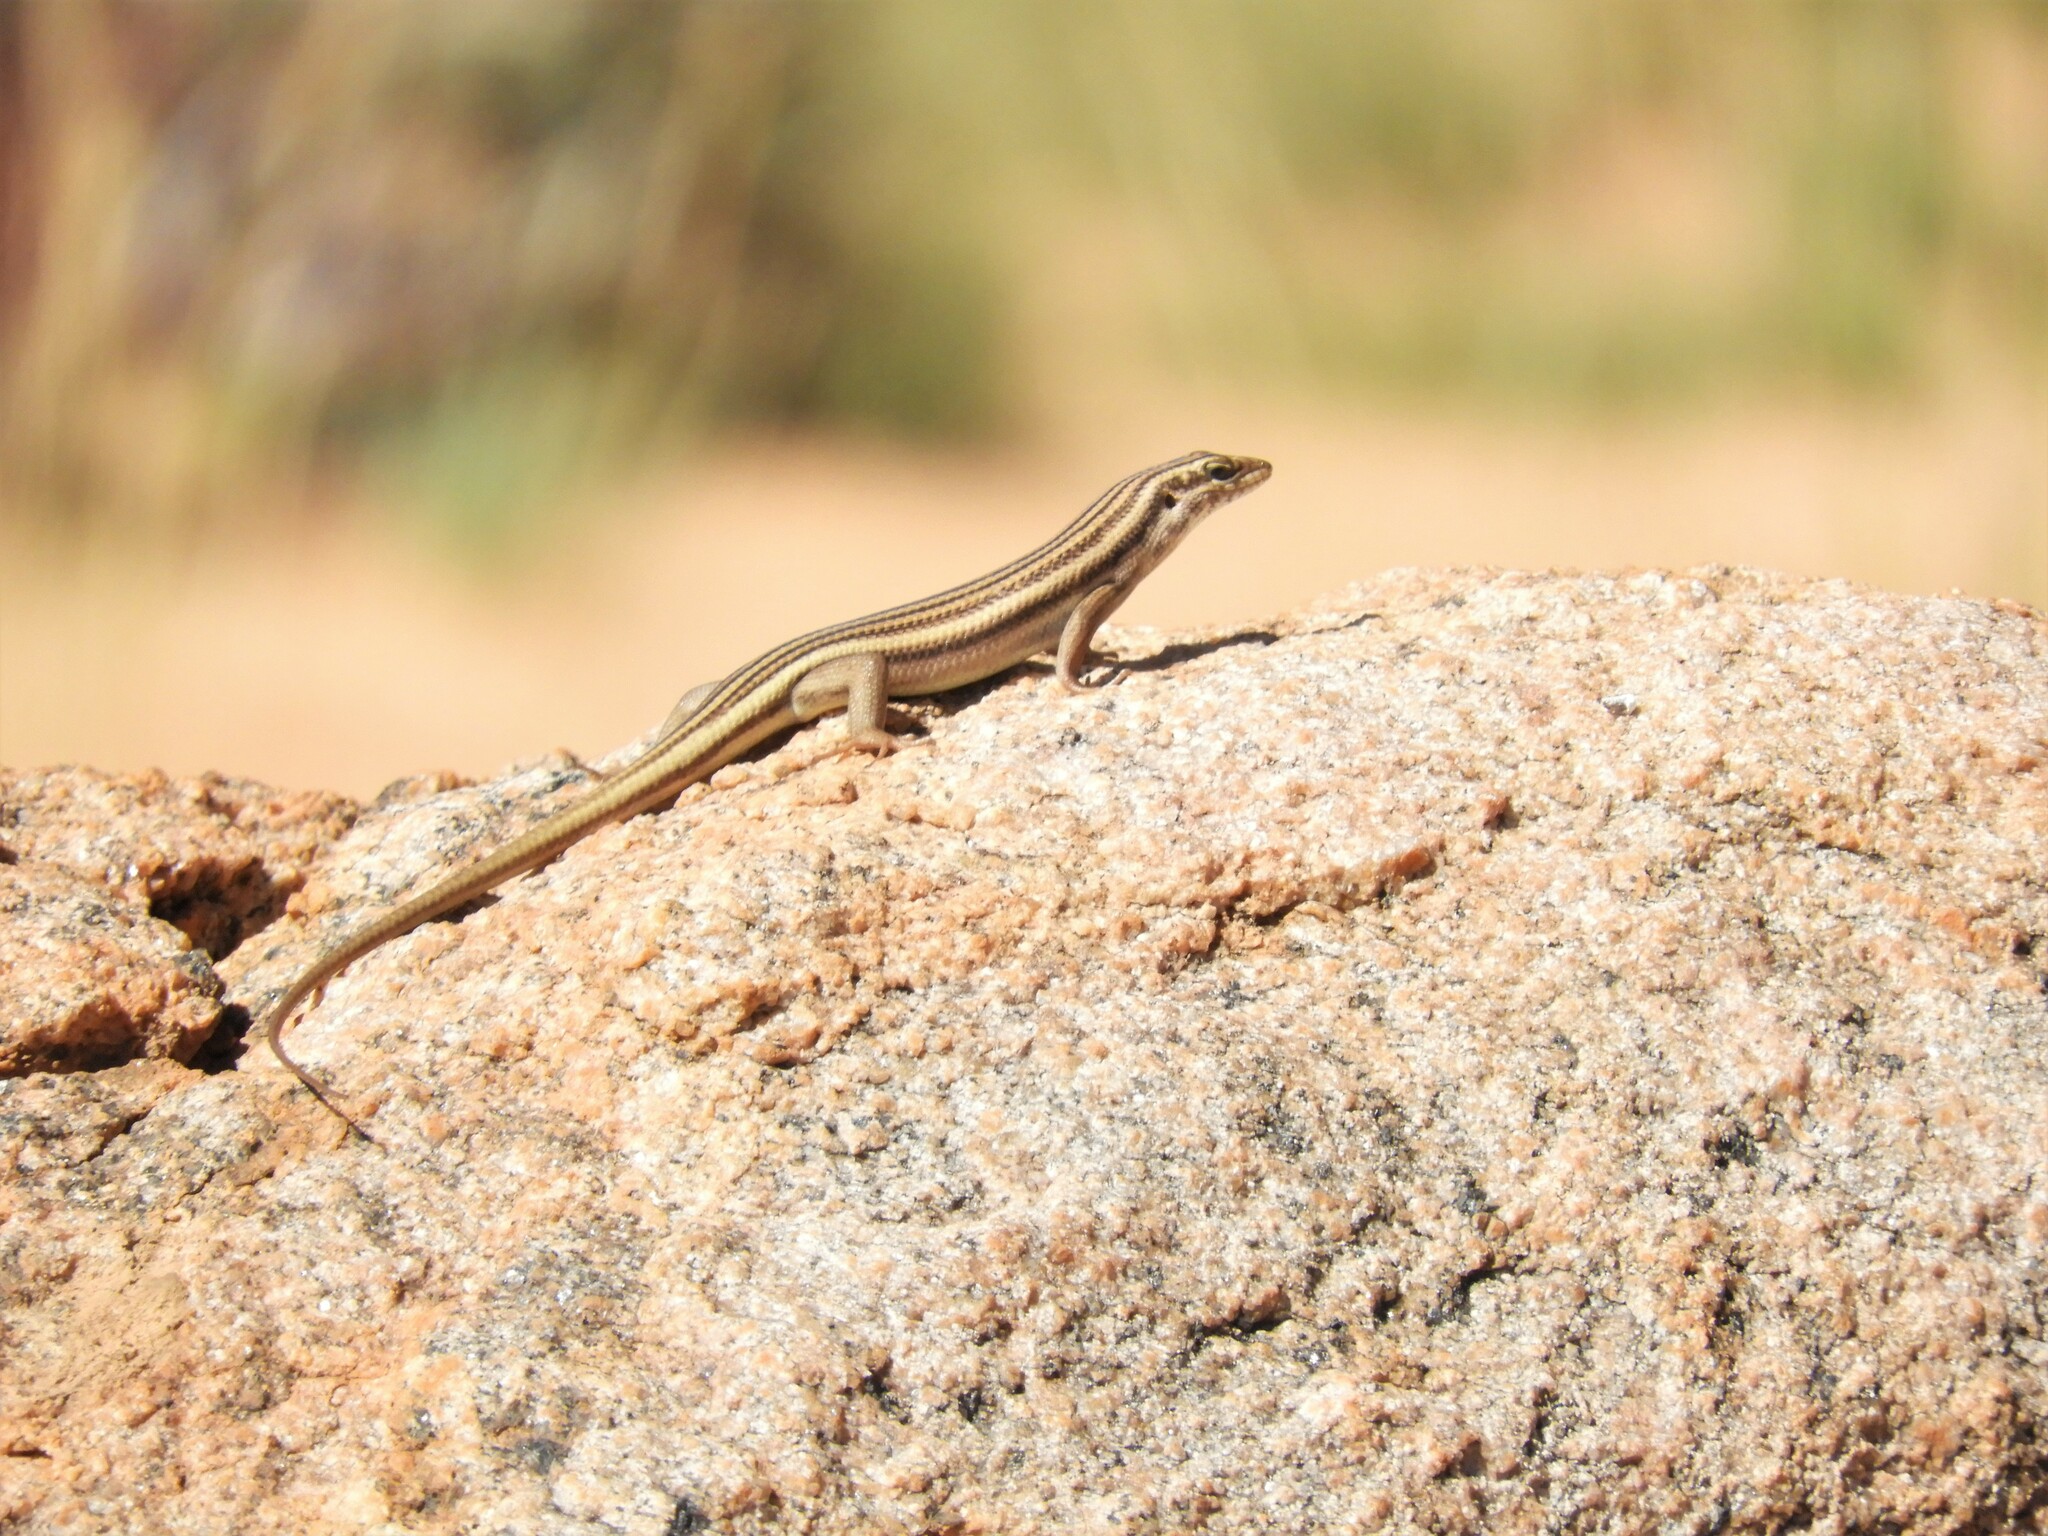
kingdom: Animalia
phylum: Chordata
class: Squamata
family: Scincidae
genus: Trachylepis
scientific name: Trachylepis sulcata
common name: Western rock skink
